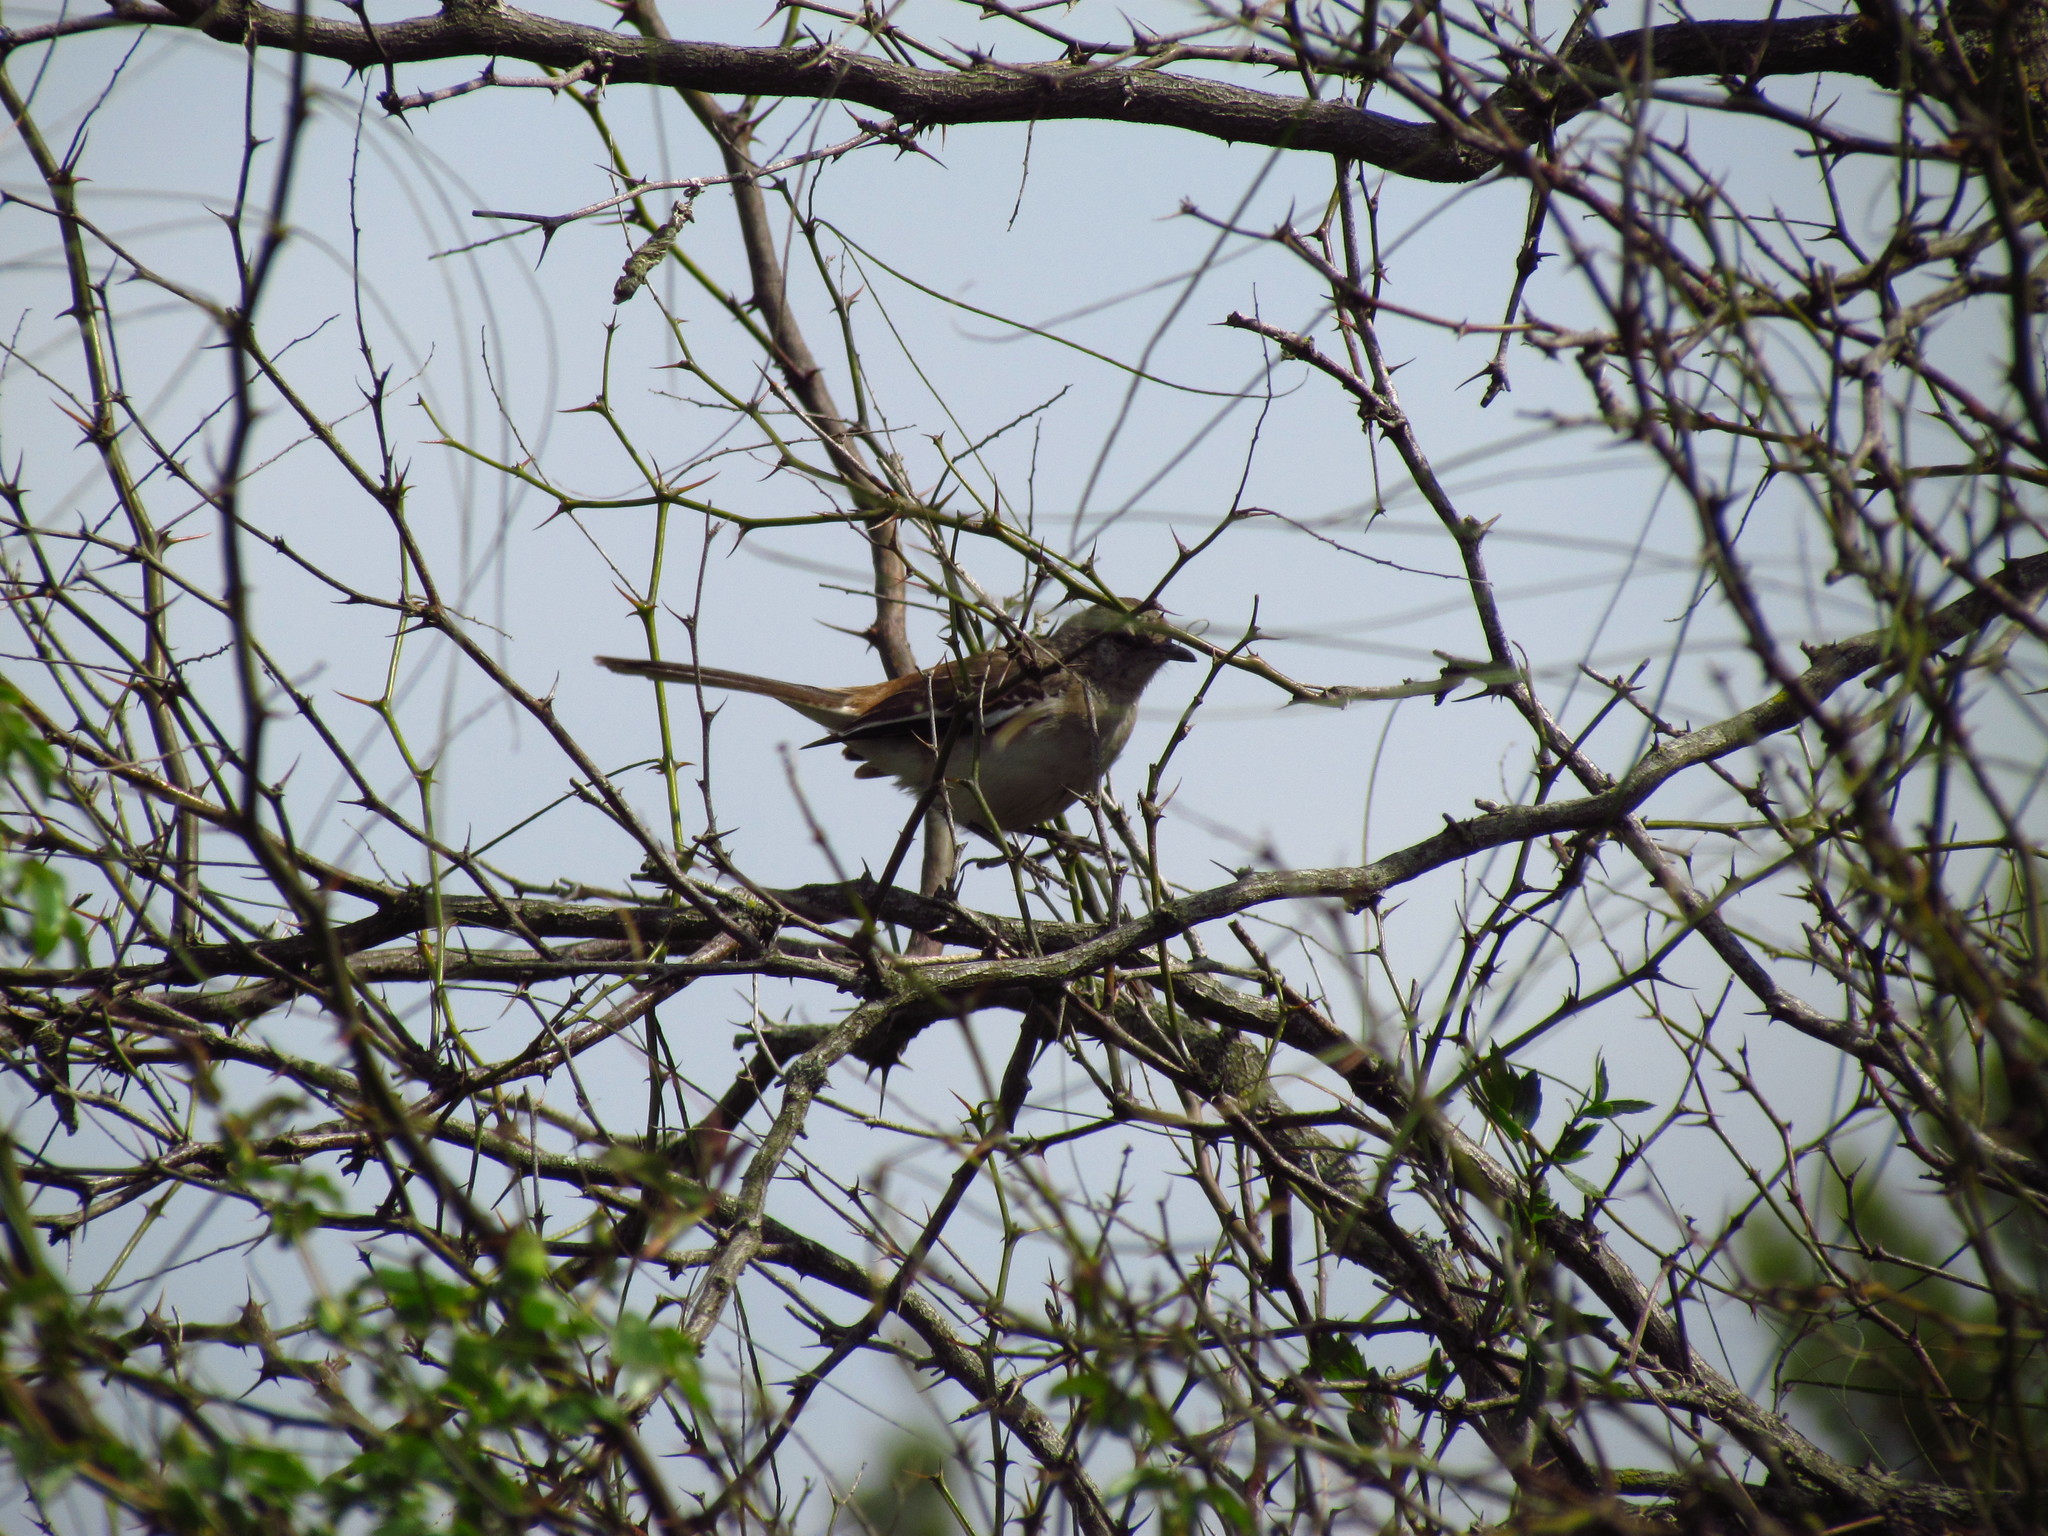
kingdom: Animalia
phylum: Chordata
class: Aves
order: Passeriformes
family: Mimidae
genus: Mimus
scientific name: Mimus triurus
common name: White-banded mockingbird
